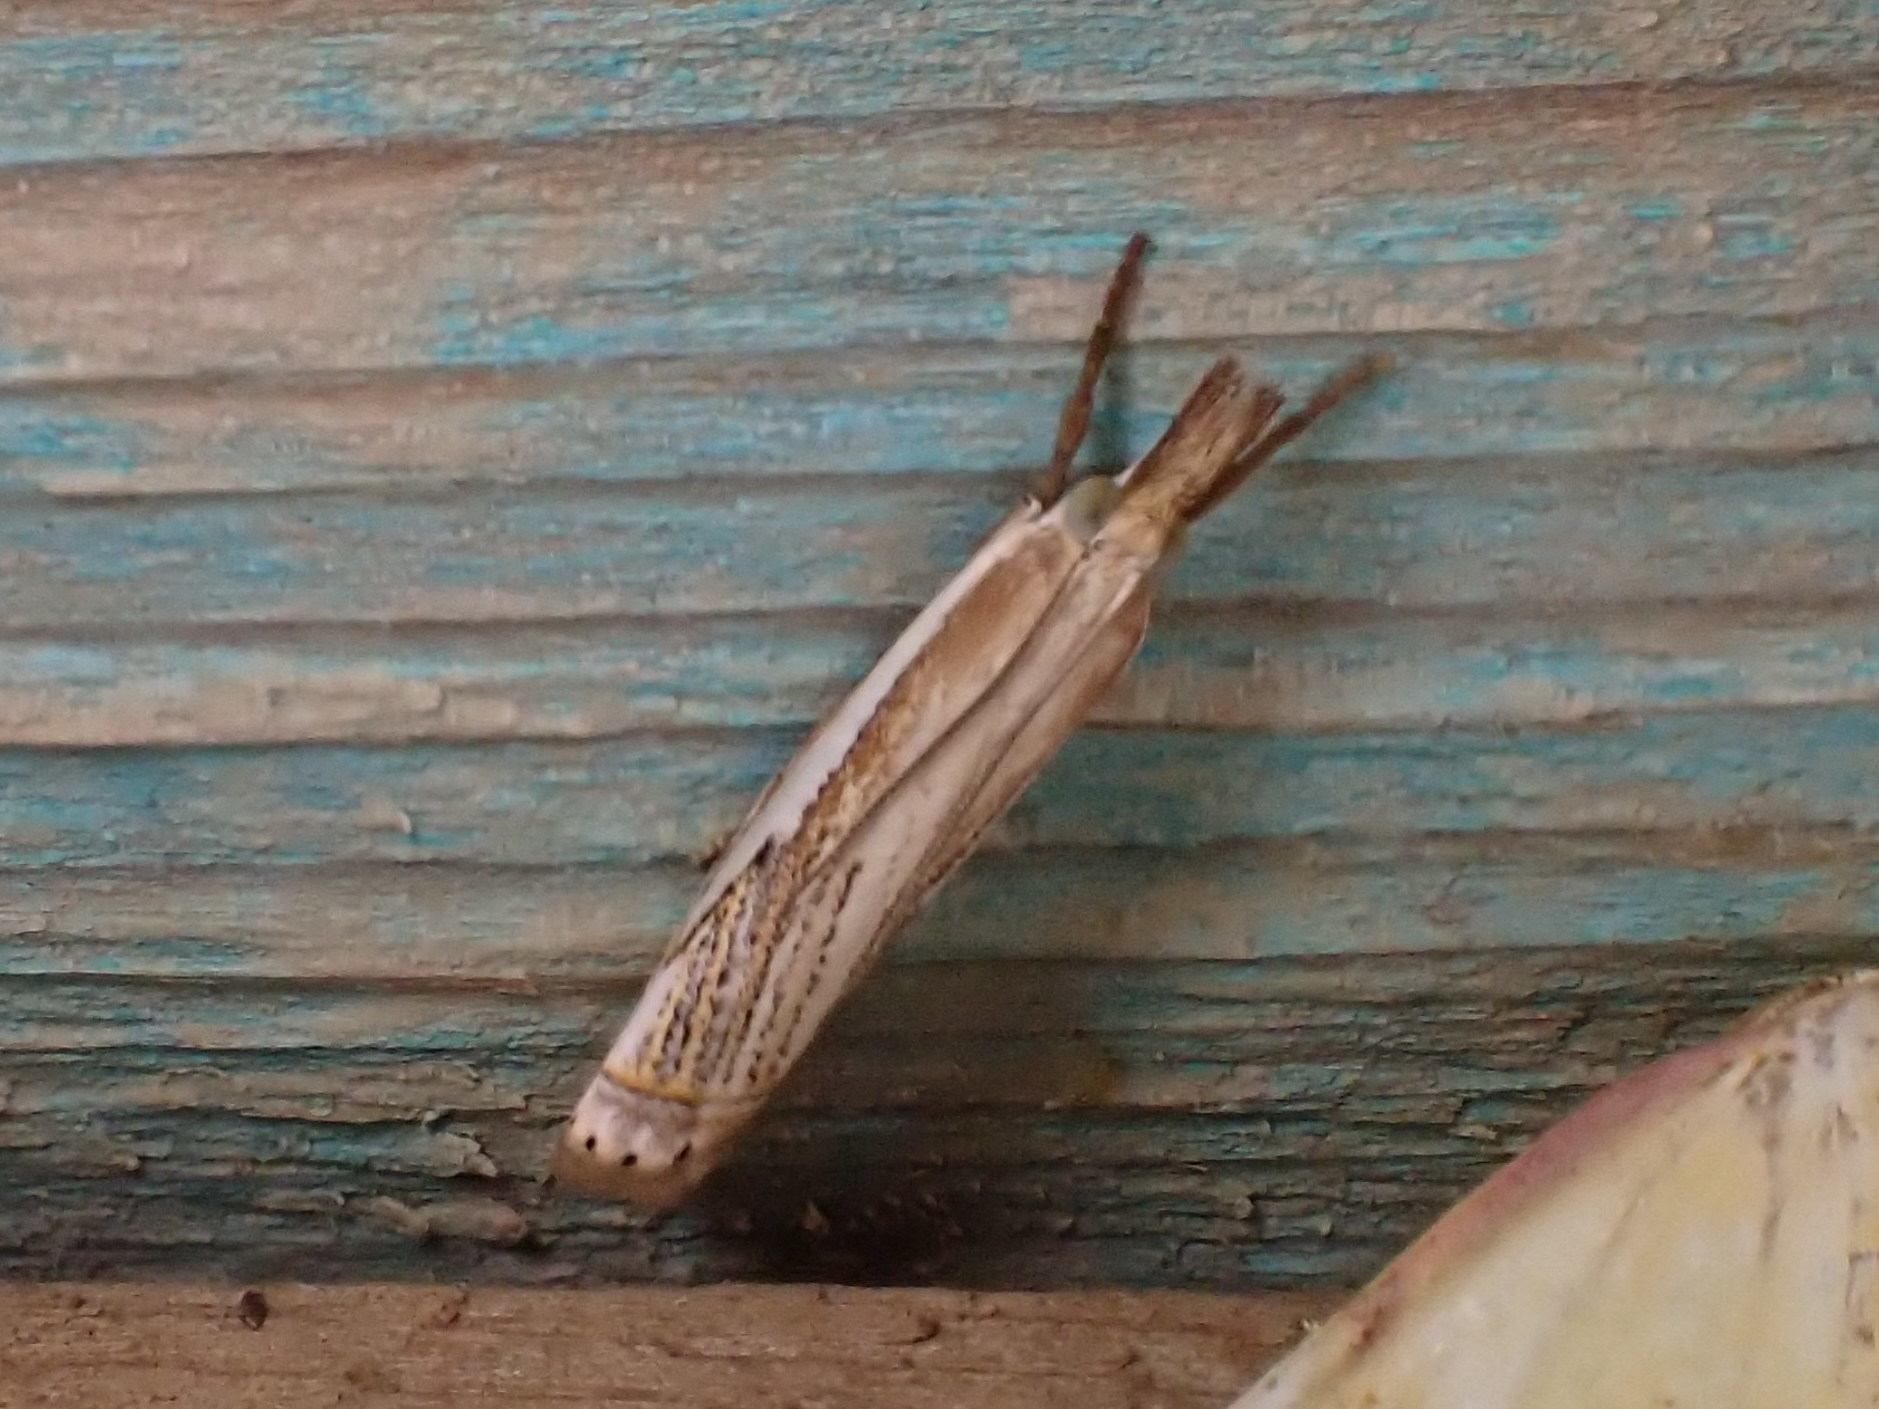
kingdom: Animalia
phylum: Arthropoda
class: Insecta
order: Lepidoptera
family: Crambidae
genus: Crambus
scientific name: Crambus saltuellus
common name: Pasture grass-veneer
